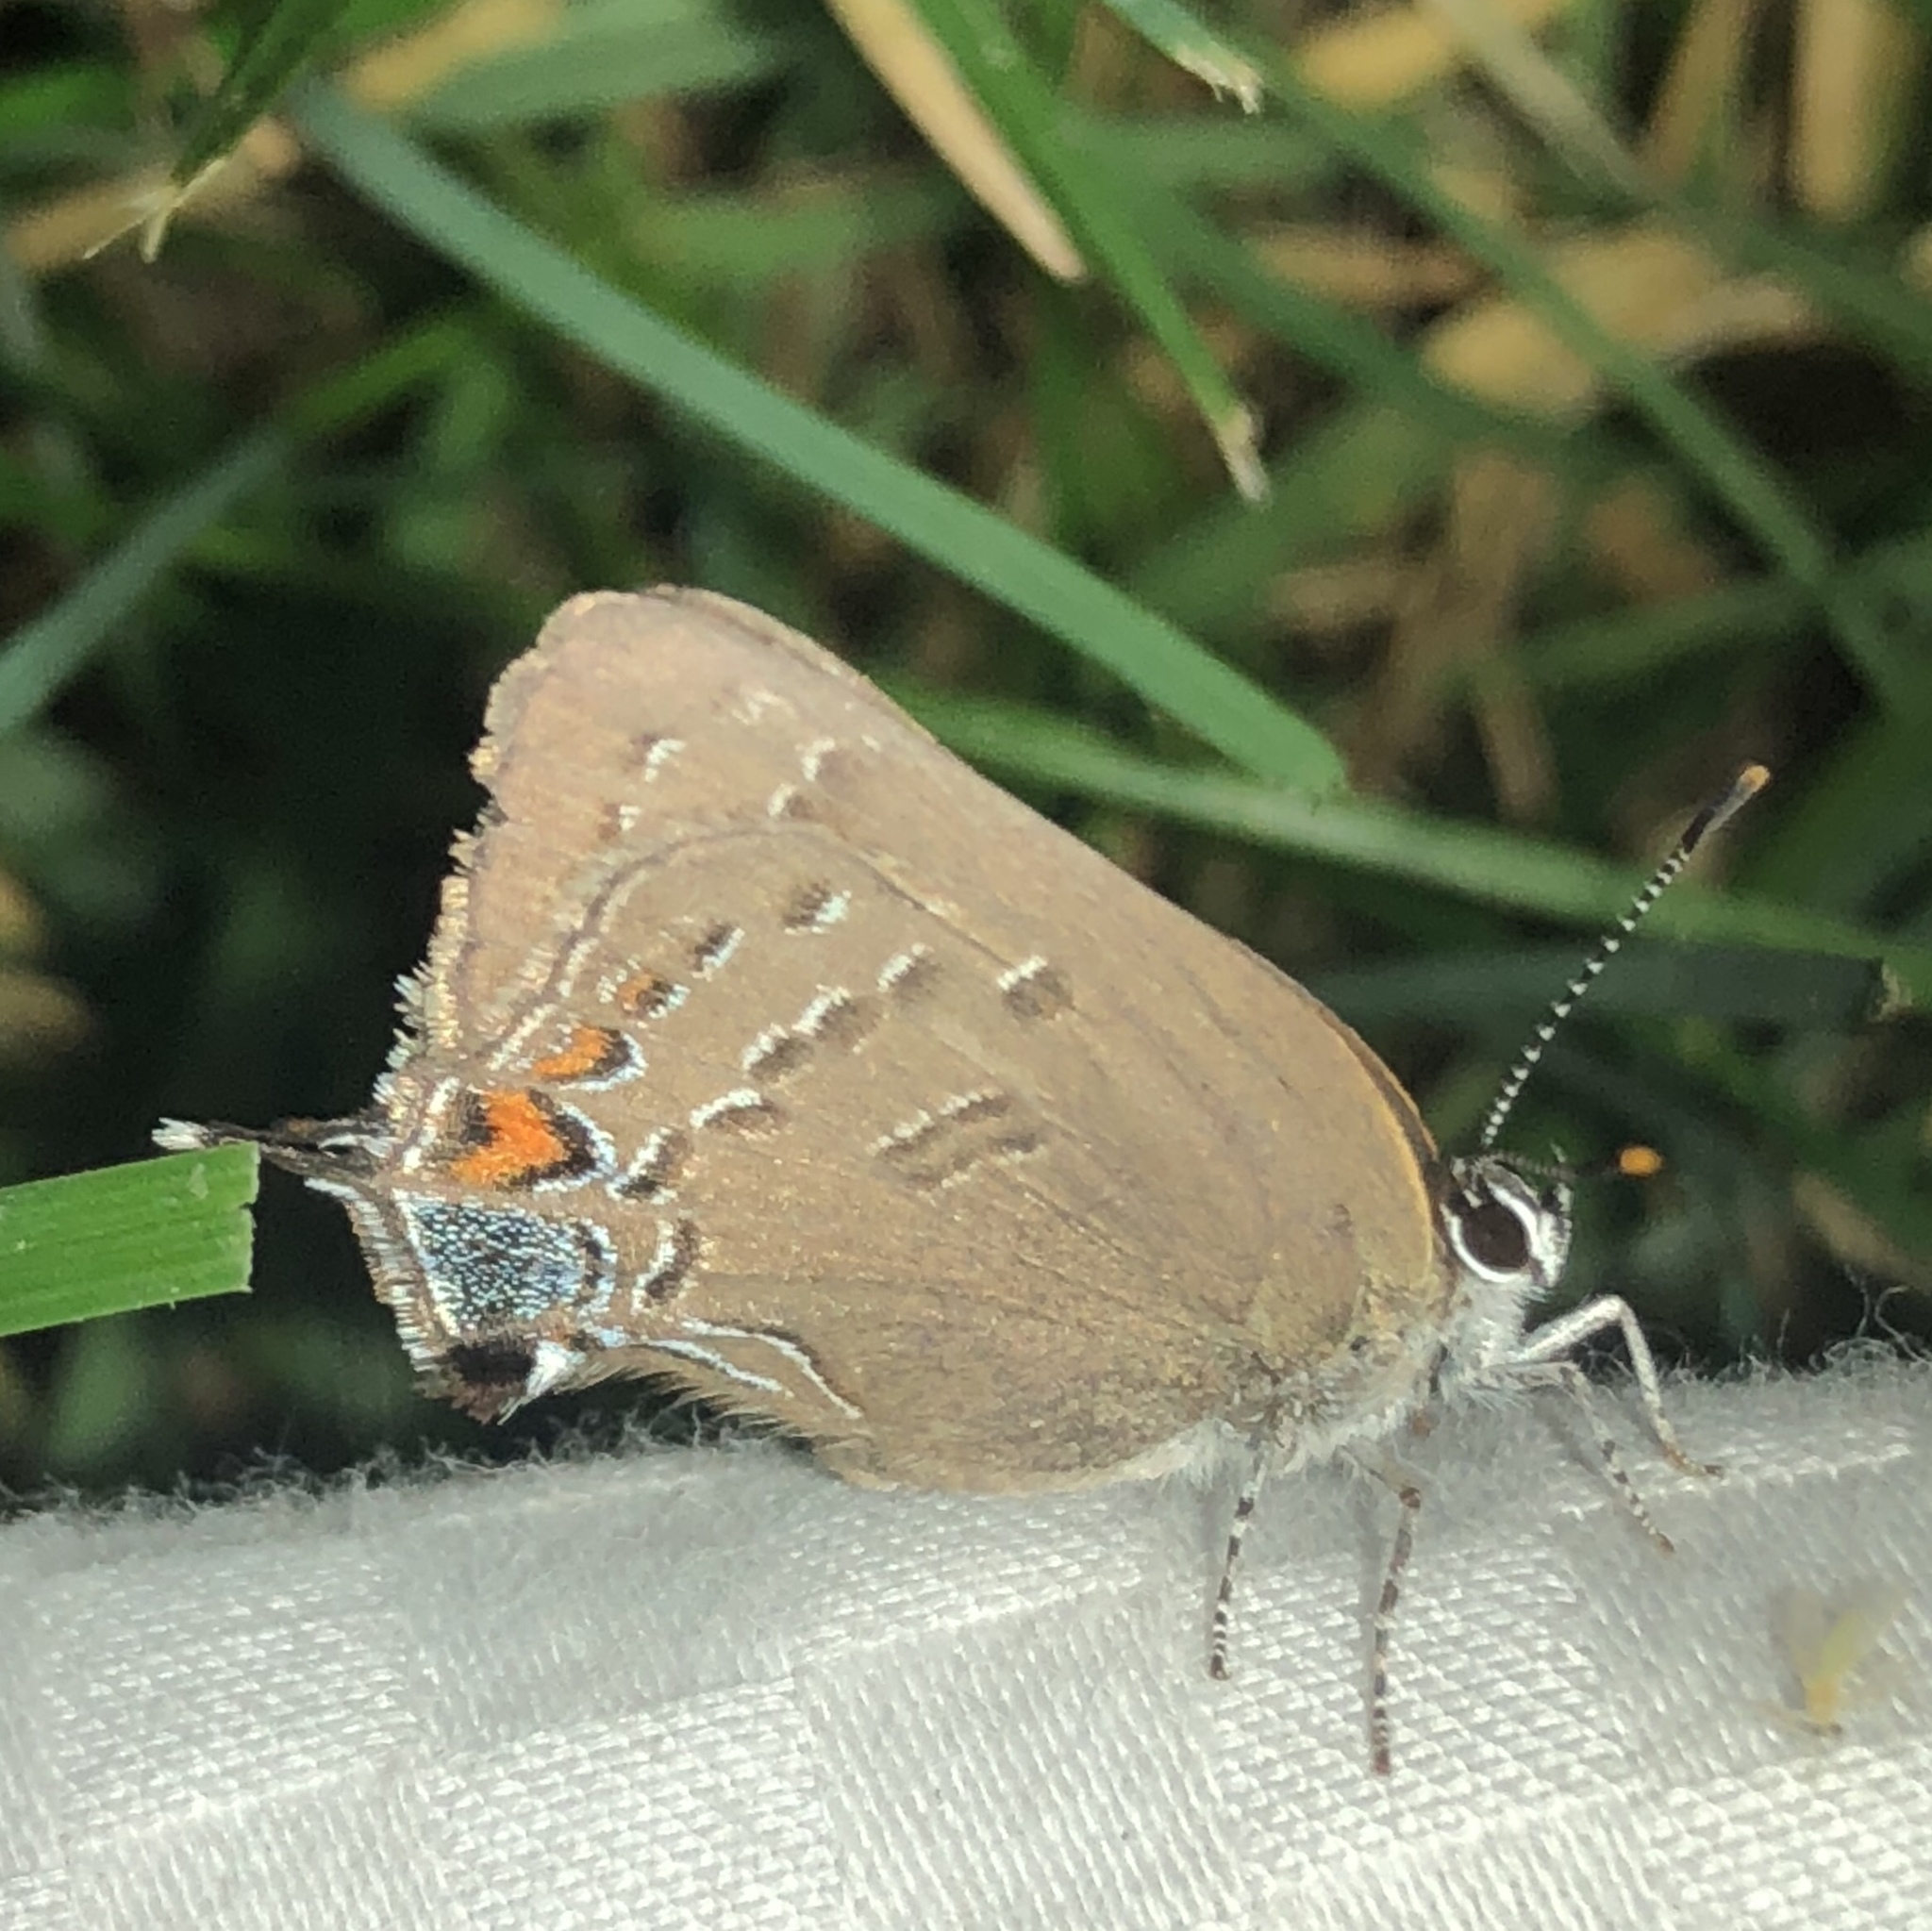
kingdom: Animalia
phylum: Arthropoda
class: Insecta
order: Lepidoptera
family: Lycaenidae
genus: Satyrium
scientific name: Satyrium calanus
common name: Banded hairstreak
